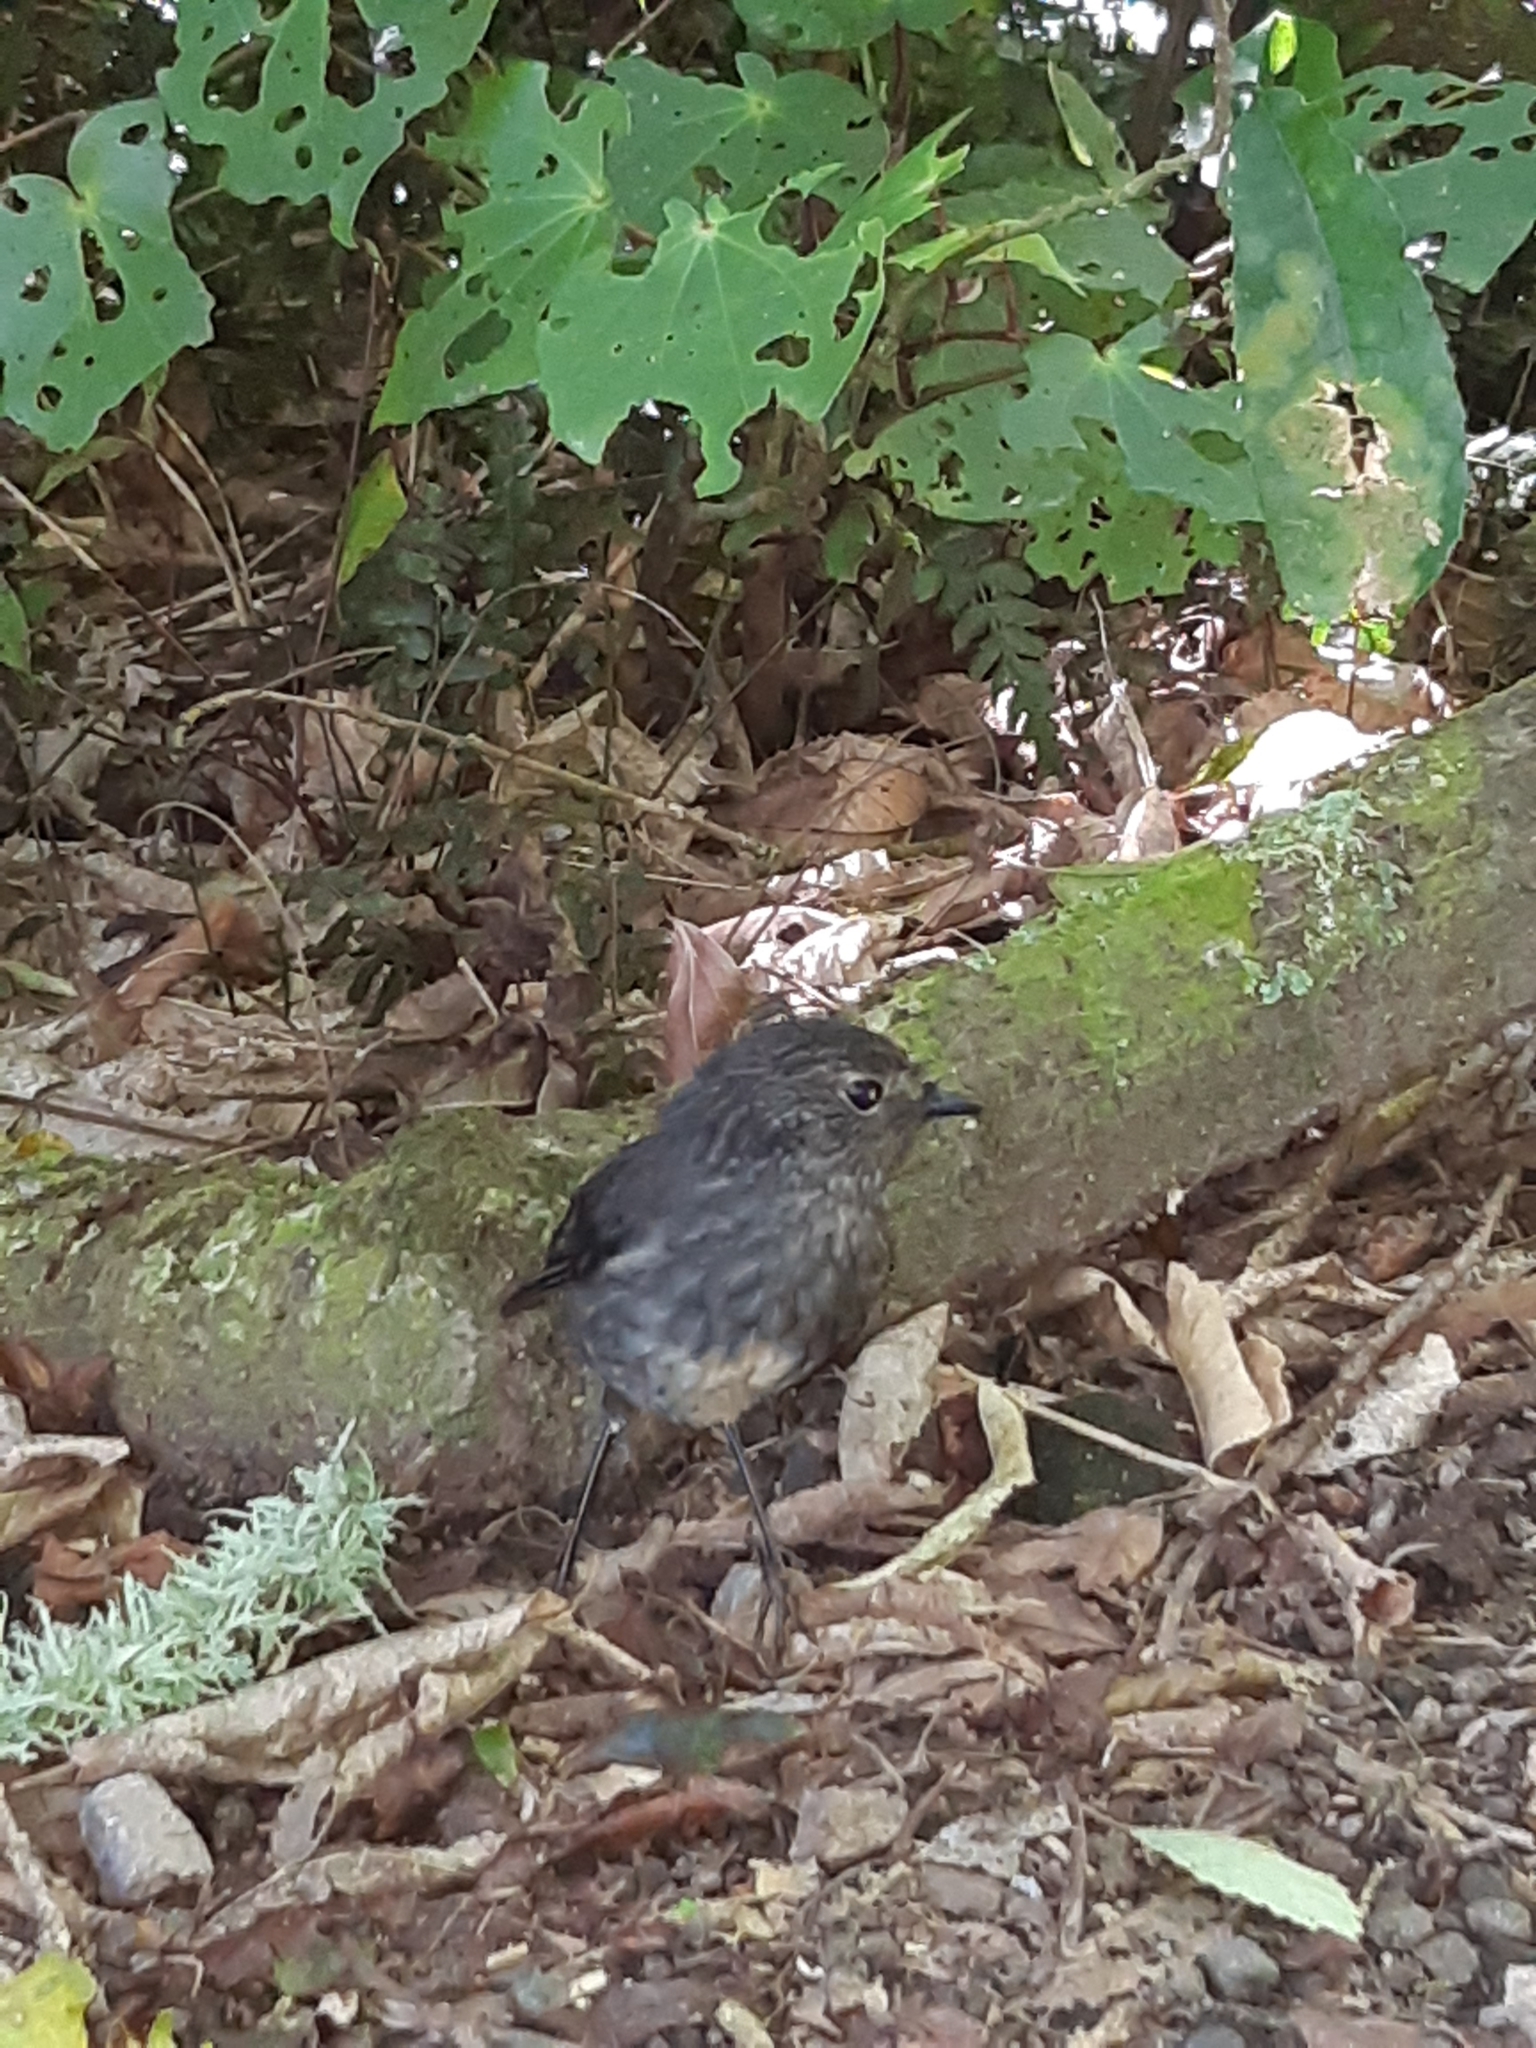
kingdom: Animalia
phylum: Chordata
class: Aves
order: Passeriformes
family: Petroicidae
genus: Petroica
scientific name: Petroica australis
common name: New zealand robin
